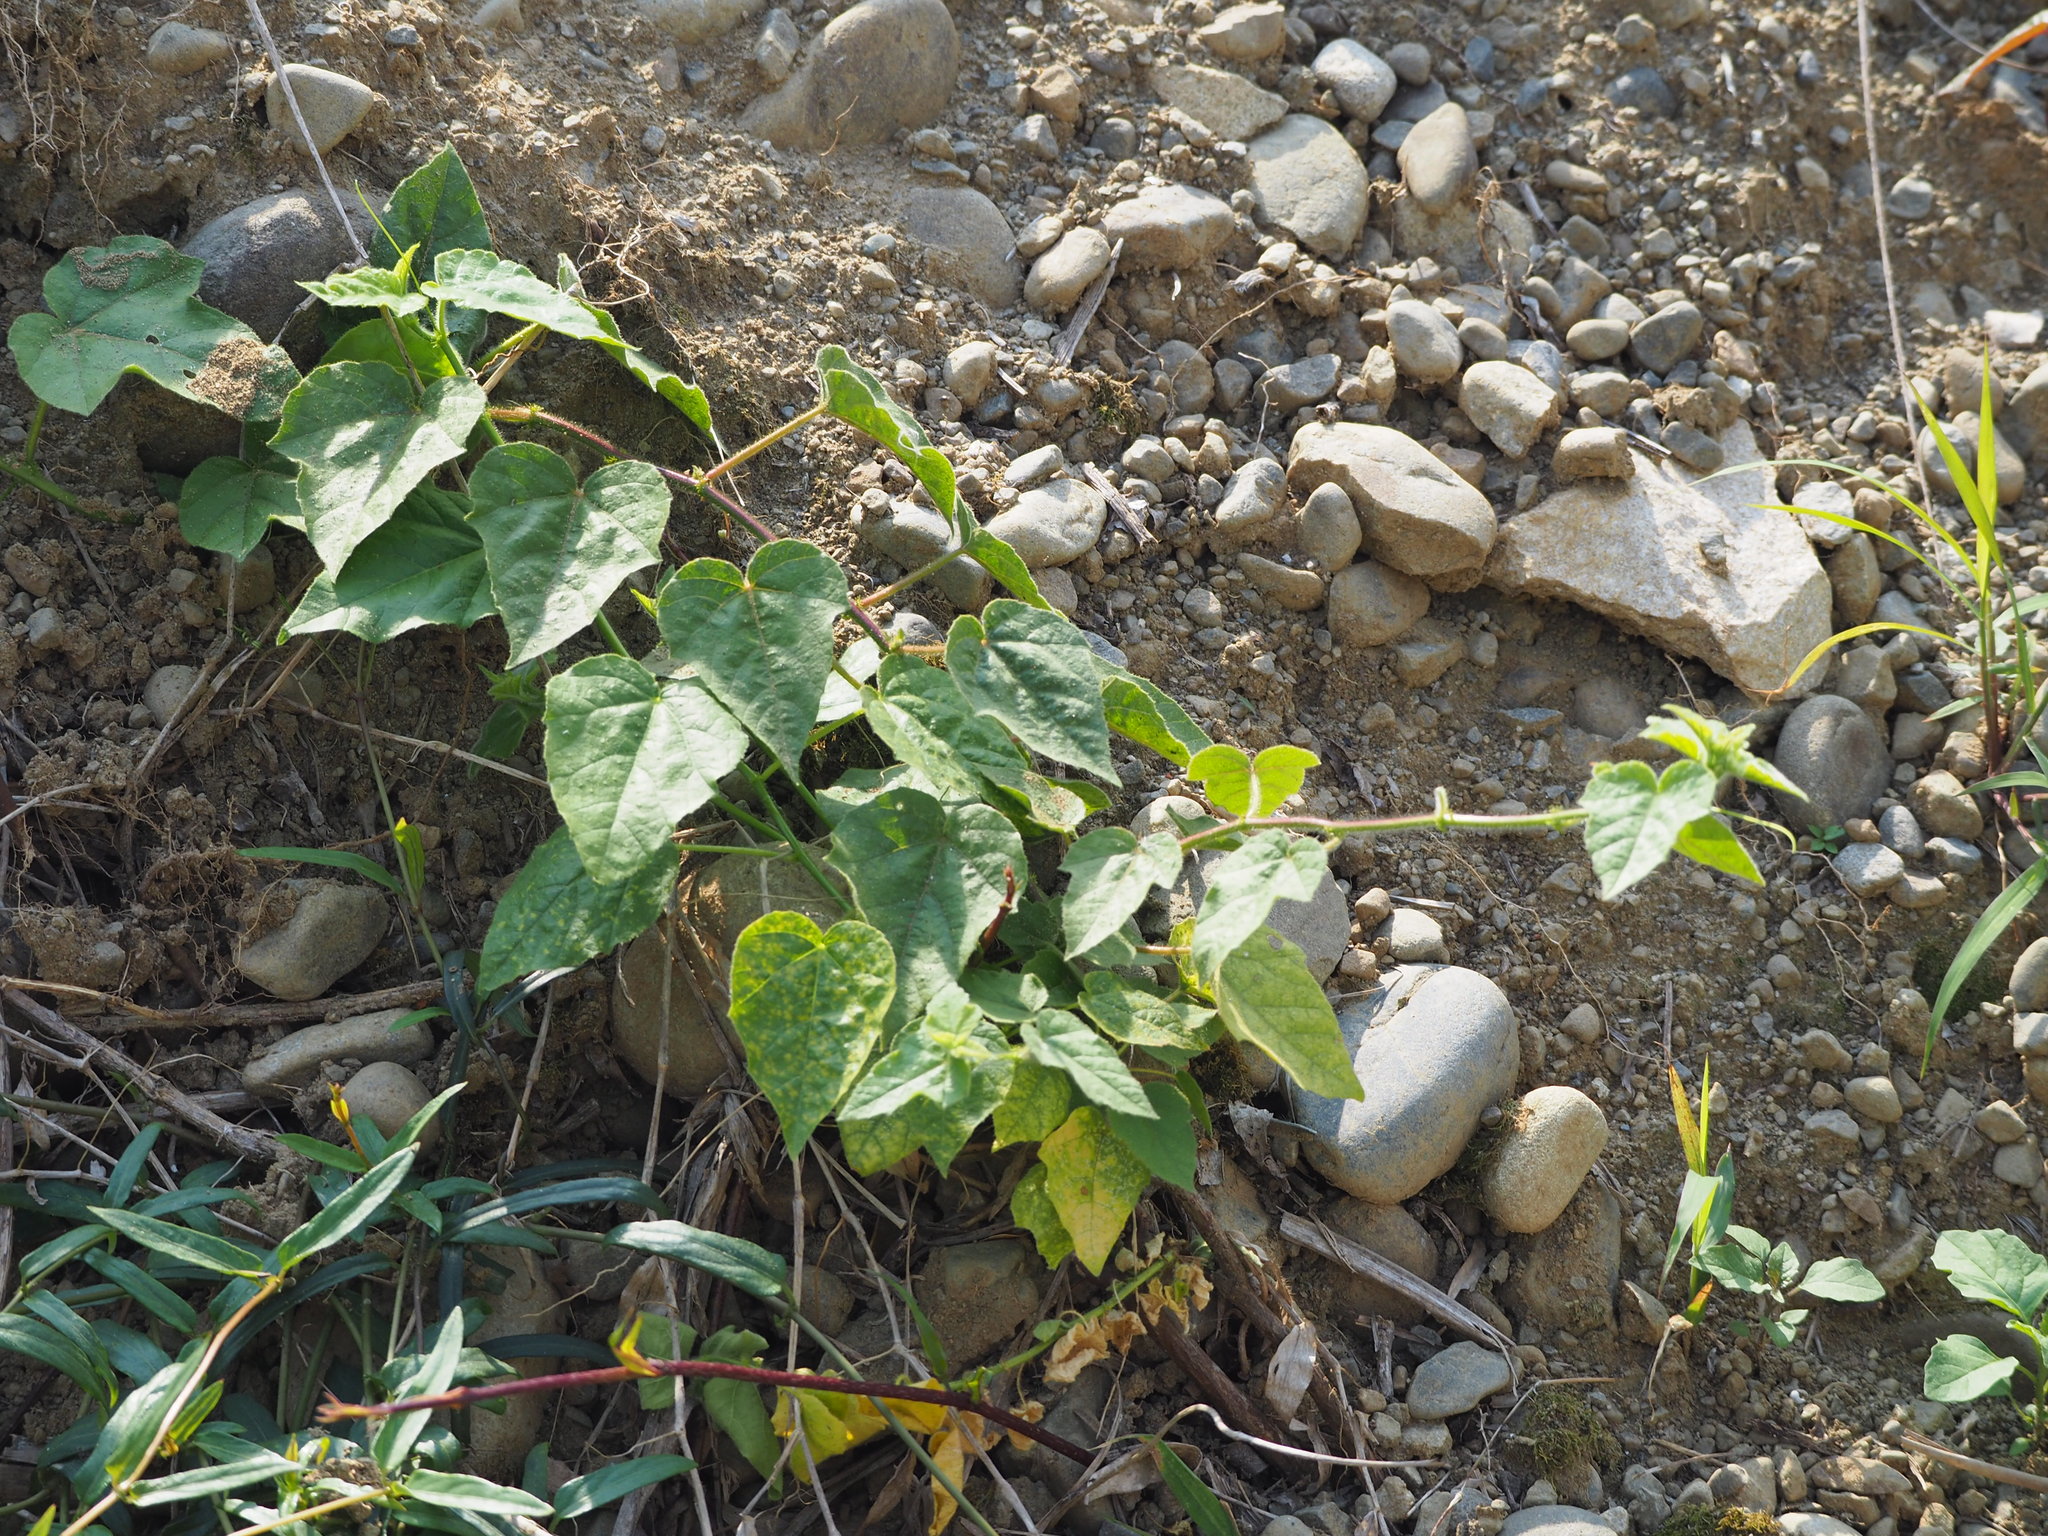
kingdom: Plantae
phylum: Tracheophyta
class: Magnoliopsida
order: Malpighiales
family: Passifloraceae
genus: Passiflora
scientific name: Passiflora vesicaria
